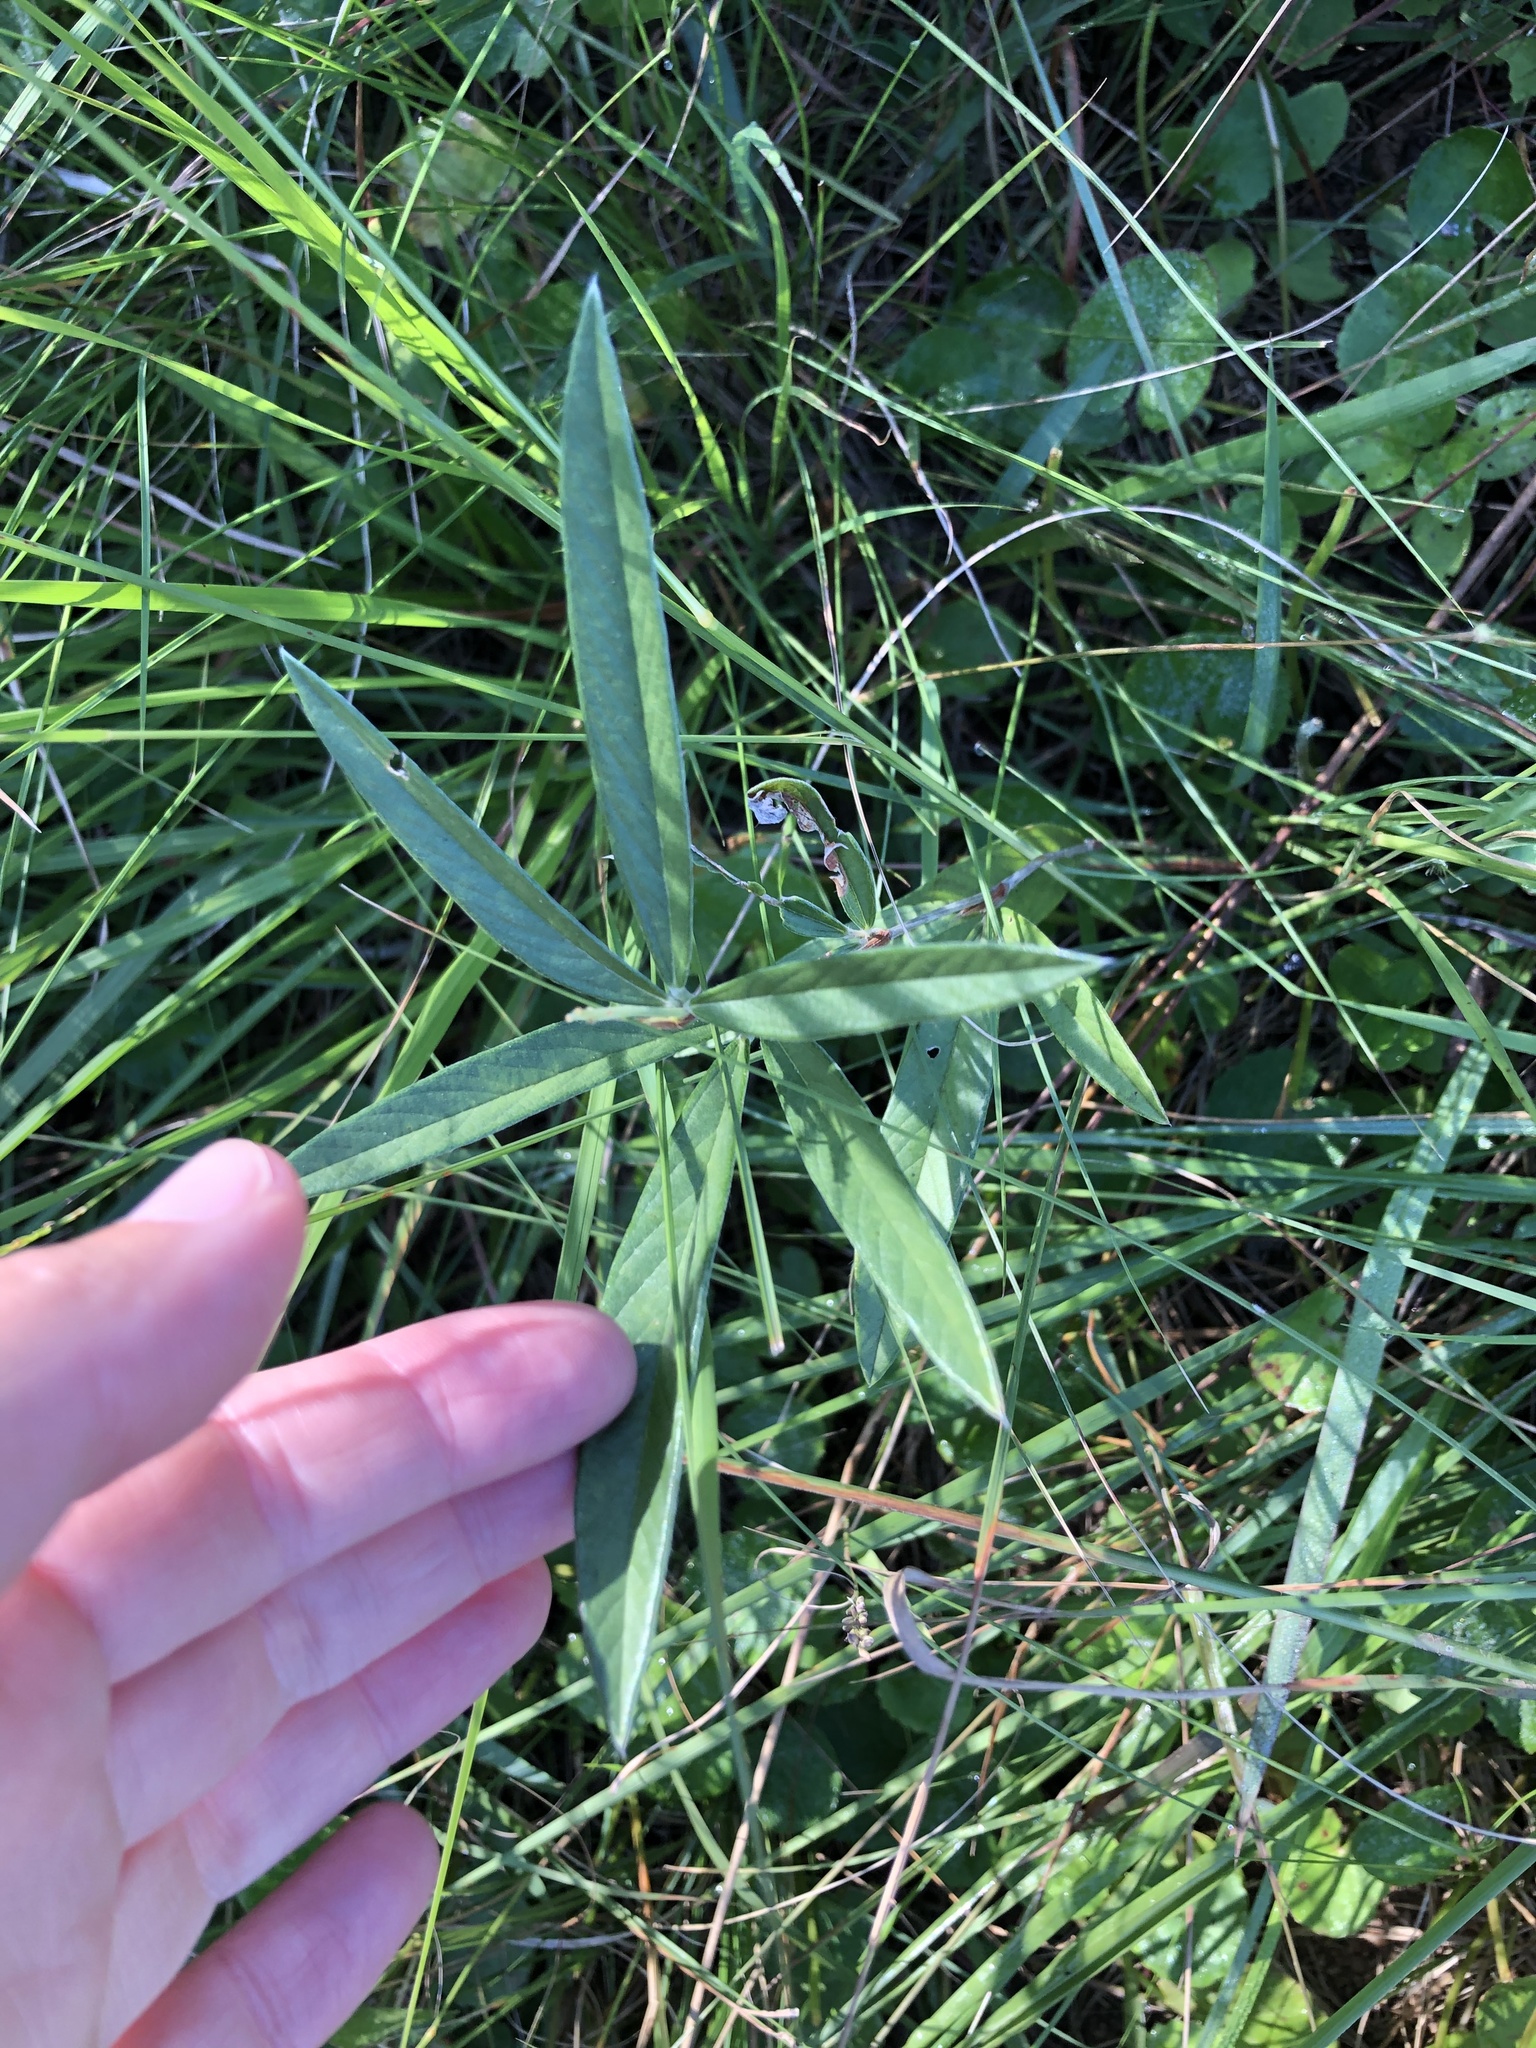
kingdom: Plantae
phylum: Tracheophyta
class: Magnoliopsida
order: Fabales
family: Fabaceae
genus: Eriosema
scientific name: Eriosema salignum
